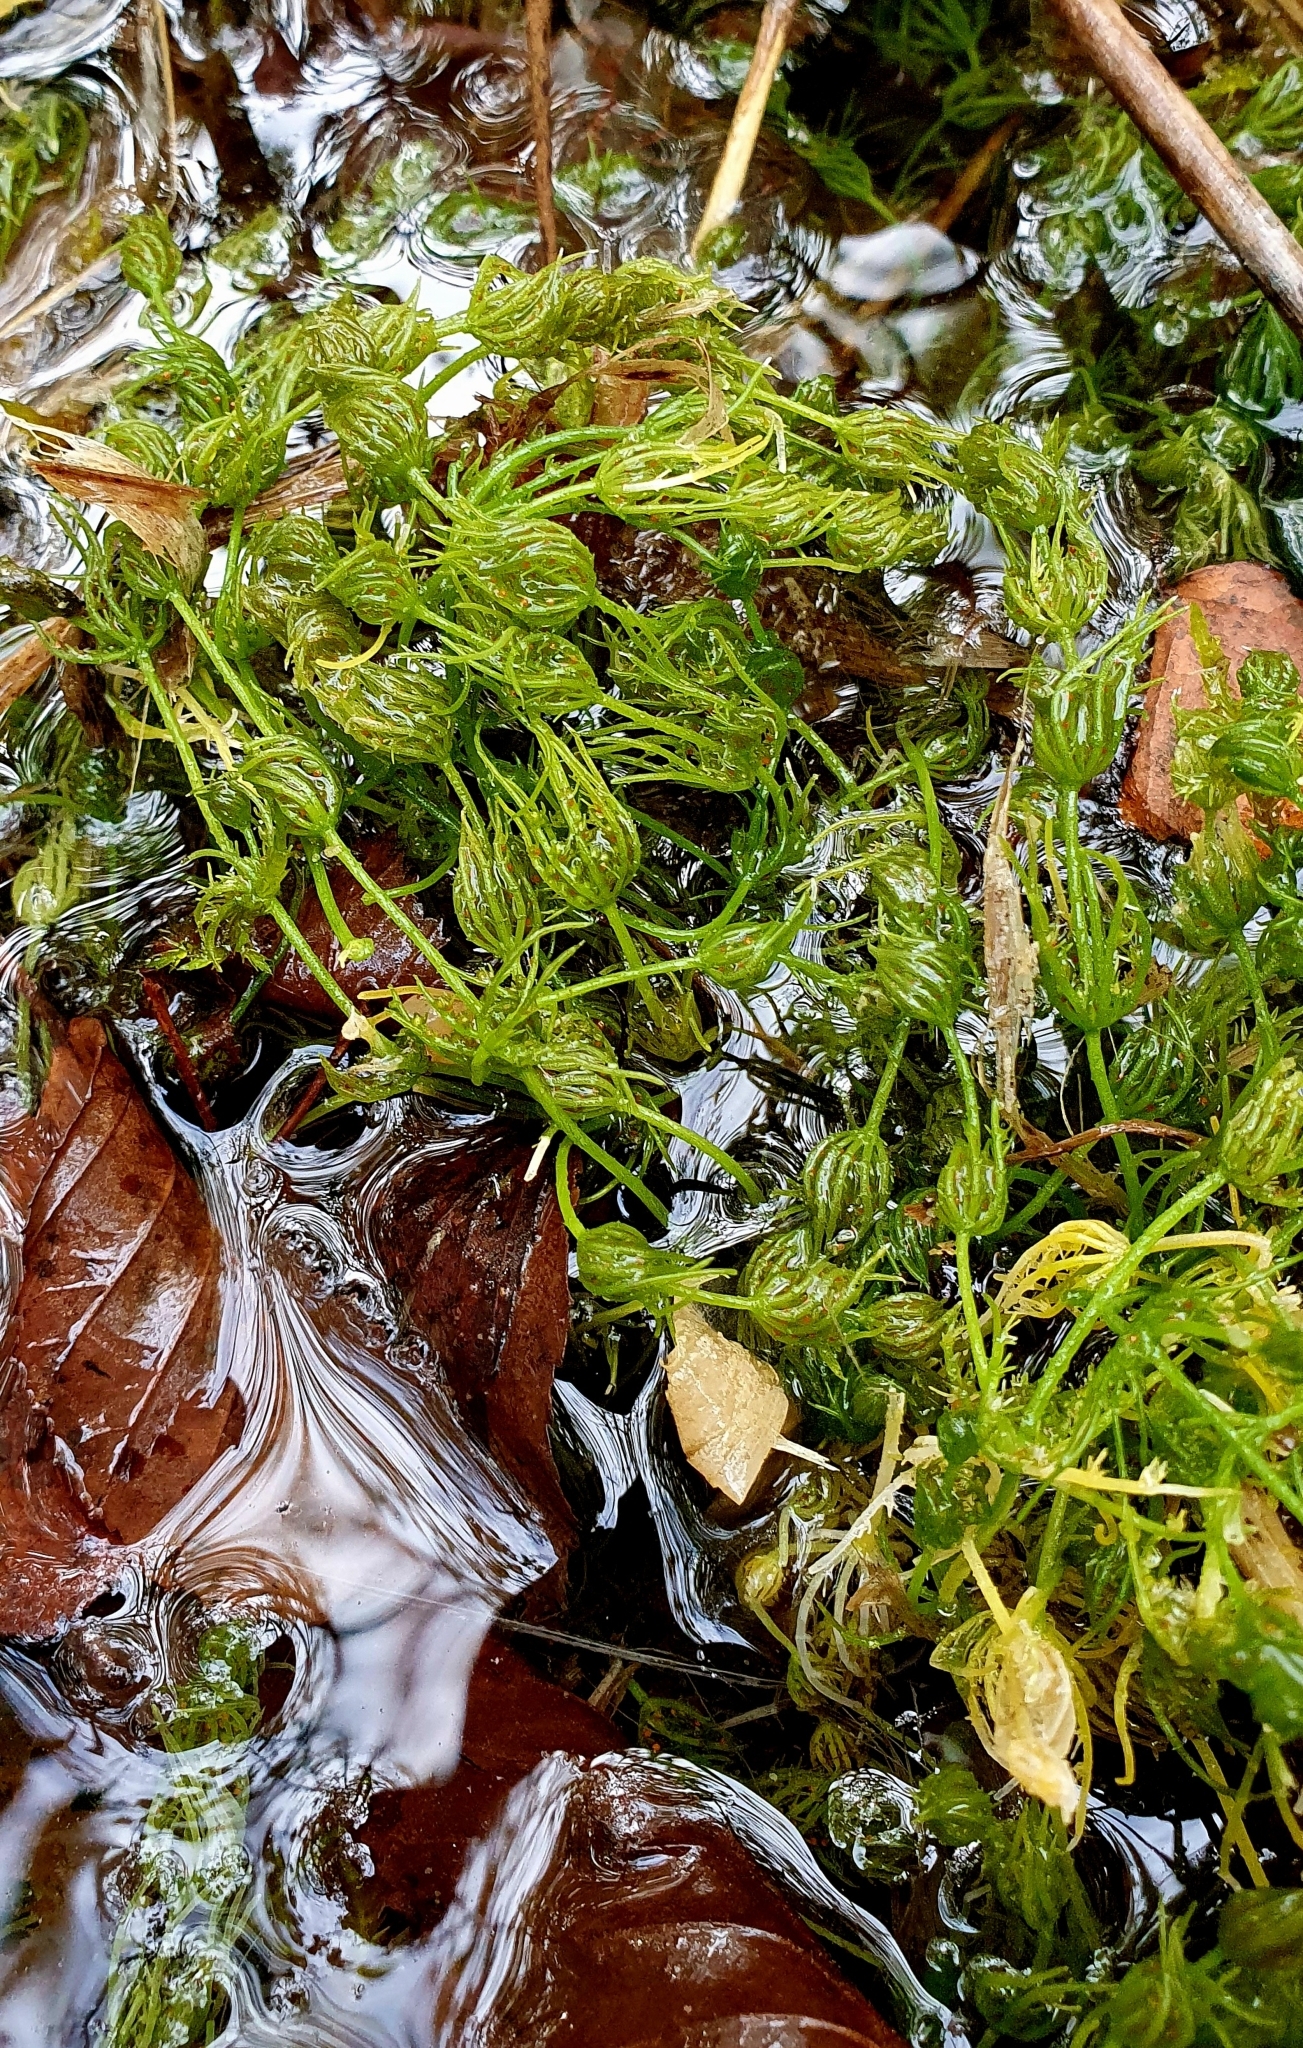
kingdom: Plantae
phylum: Charophyta
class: Charophyceae
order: Charales
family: Characeae
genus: Chara
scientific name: Chara vulgaris
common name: Common stonewort
